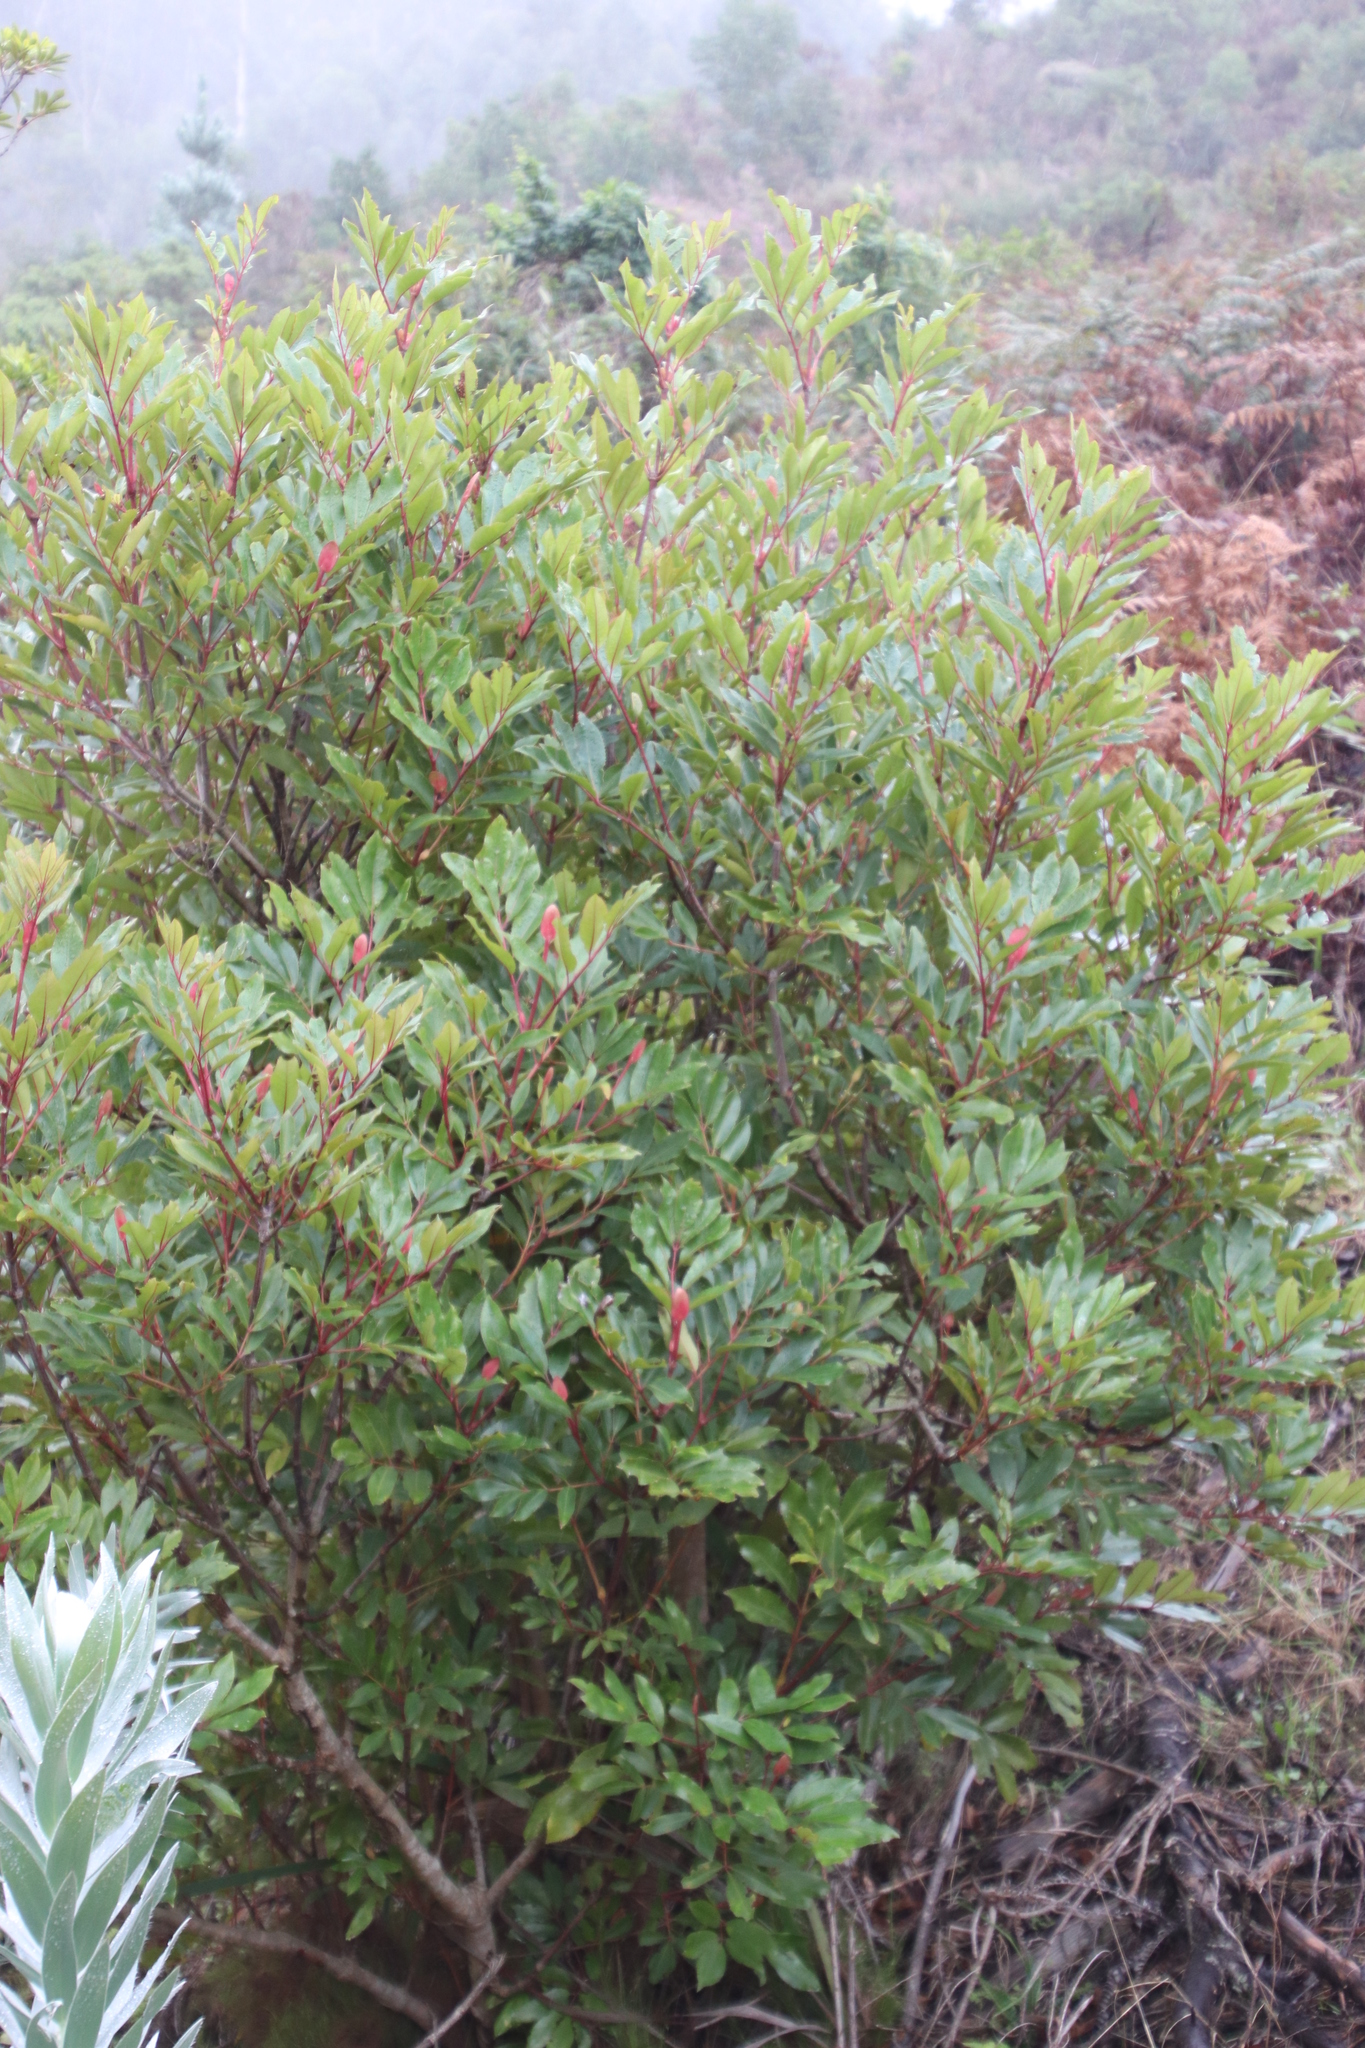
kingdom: Plantae
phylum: Tracheophyta
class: Magnoliopsida
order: Oxalidales
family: Cunoniaceae
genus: Cunonia
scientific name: Cunonia capensis
